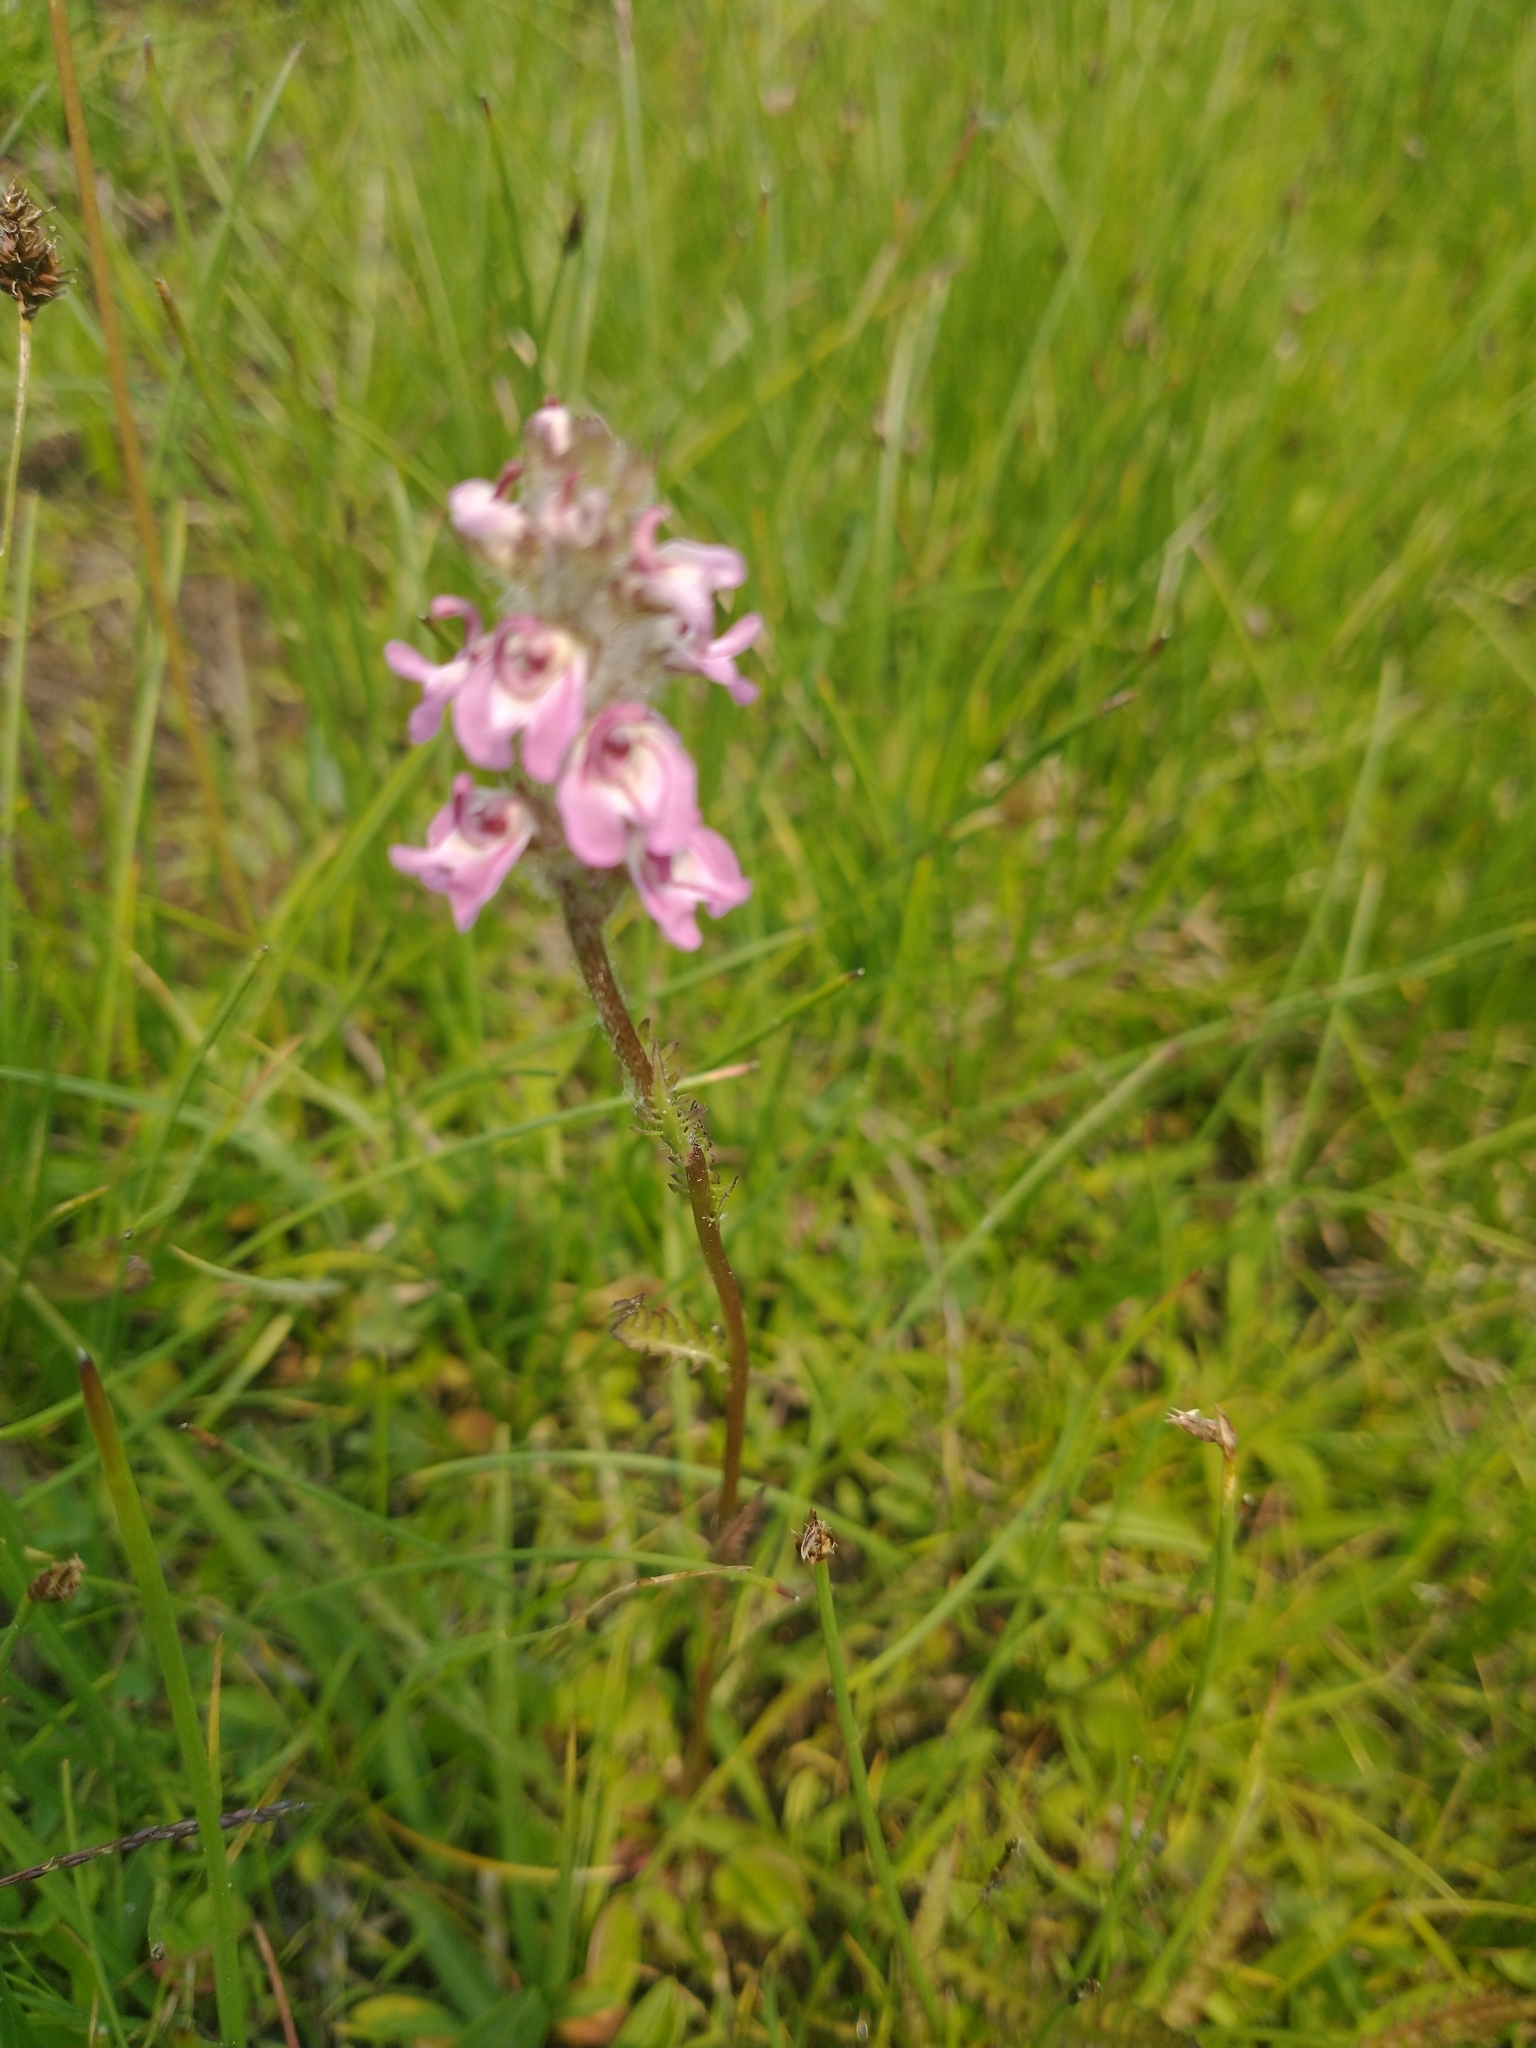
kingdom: Plantae
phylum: Tracheophyta
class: Magnoliopsida
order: Lamiales
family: Orobanchaceae
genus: Pedicularis
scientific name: Pedicularis attollens
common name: Slender pedicularis
